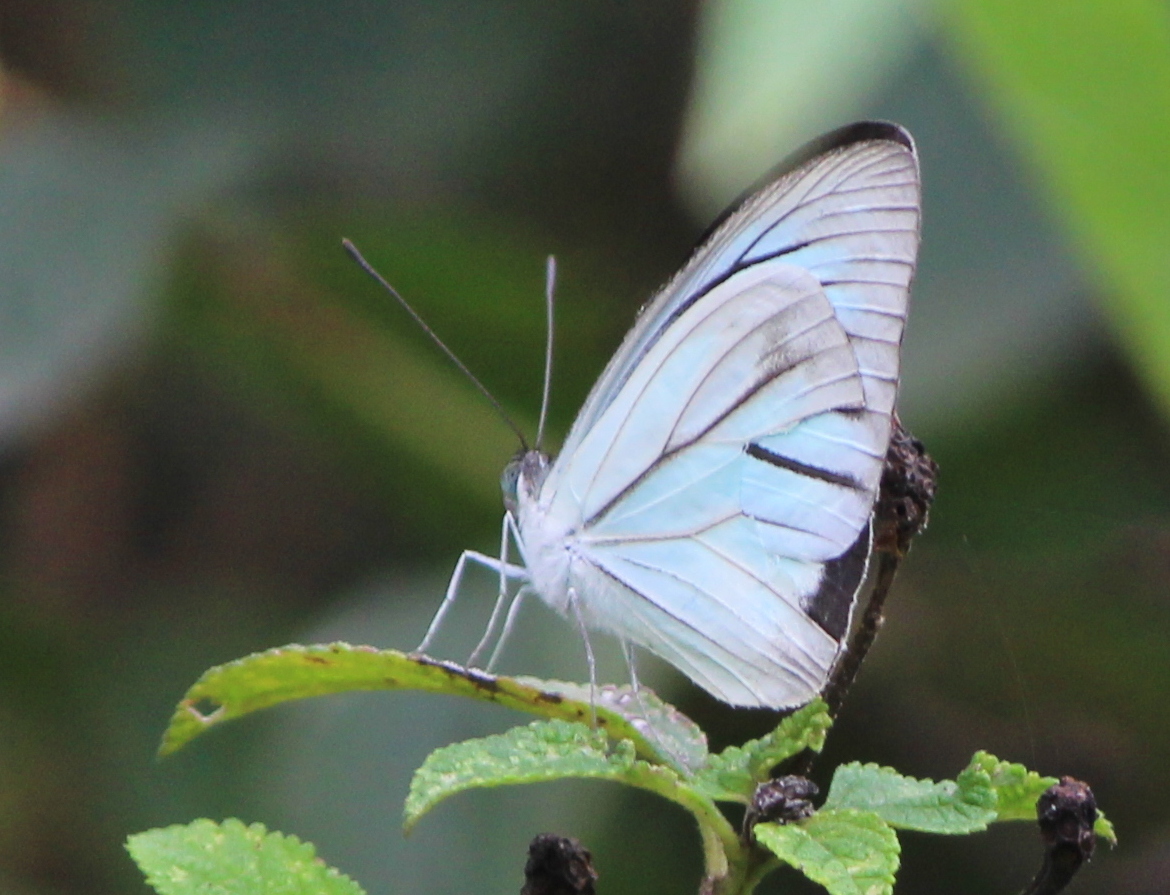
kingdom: Animalia
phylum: Arthropoda
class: Insecta
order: Lepidoptera
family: Pieridae
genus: Pareronia
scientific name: Pareronia hippia
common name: Indian wanderer
